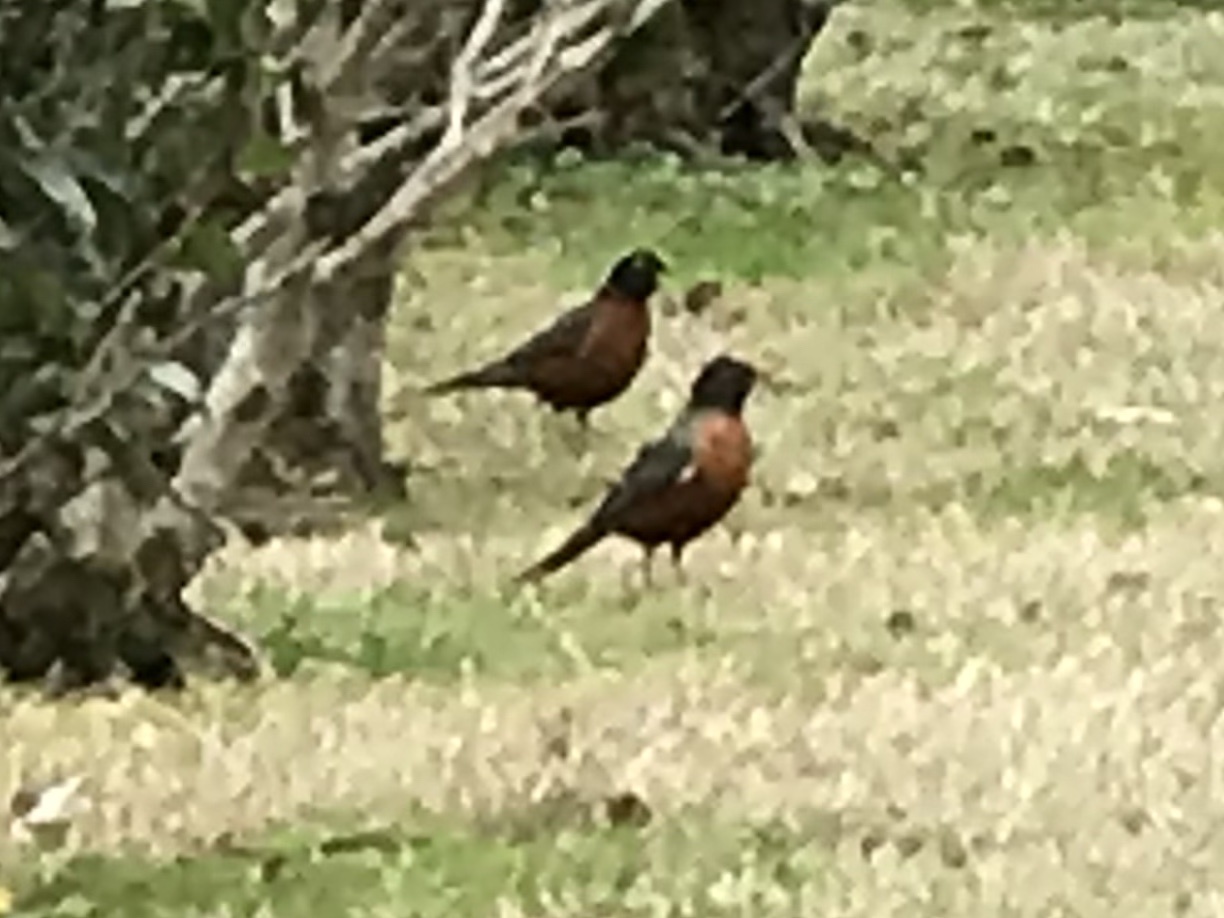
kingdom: Animalia
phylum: Chordata
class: Aves
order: Passeriformes
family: Turdidae
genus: Turdus
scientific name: Turdus migratorius
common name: American robin
